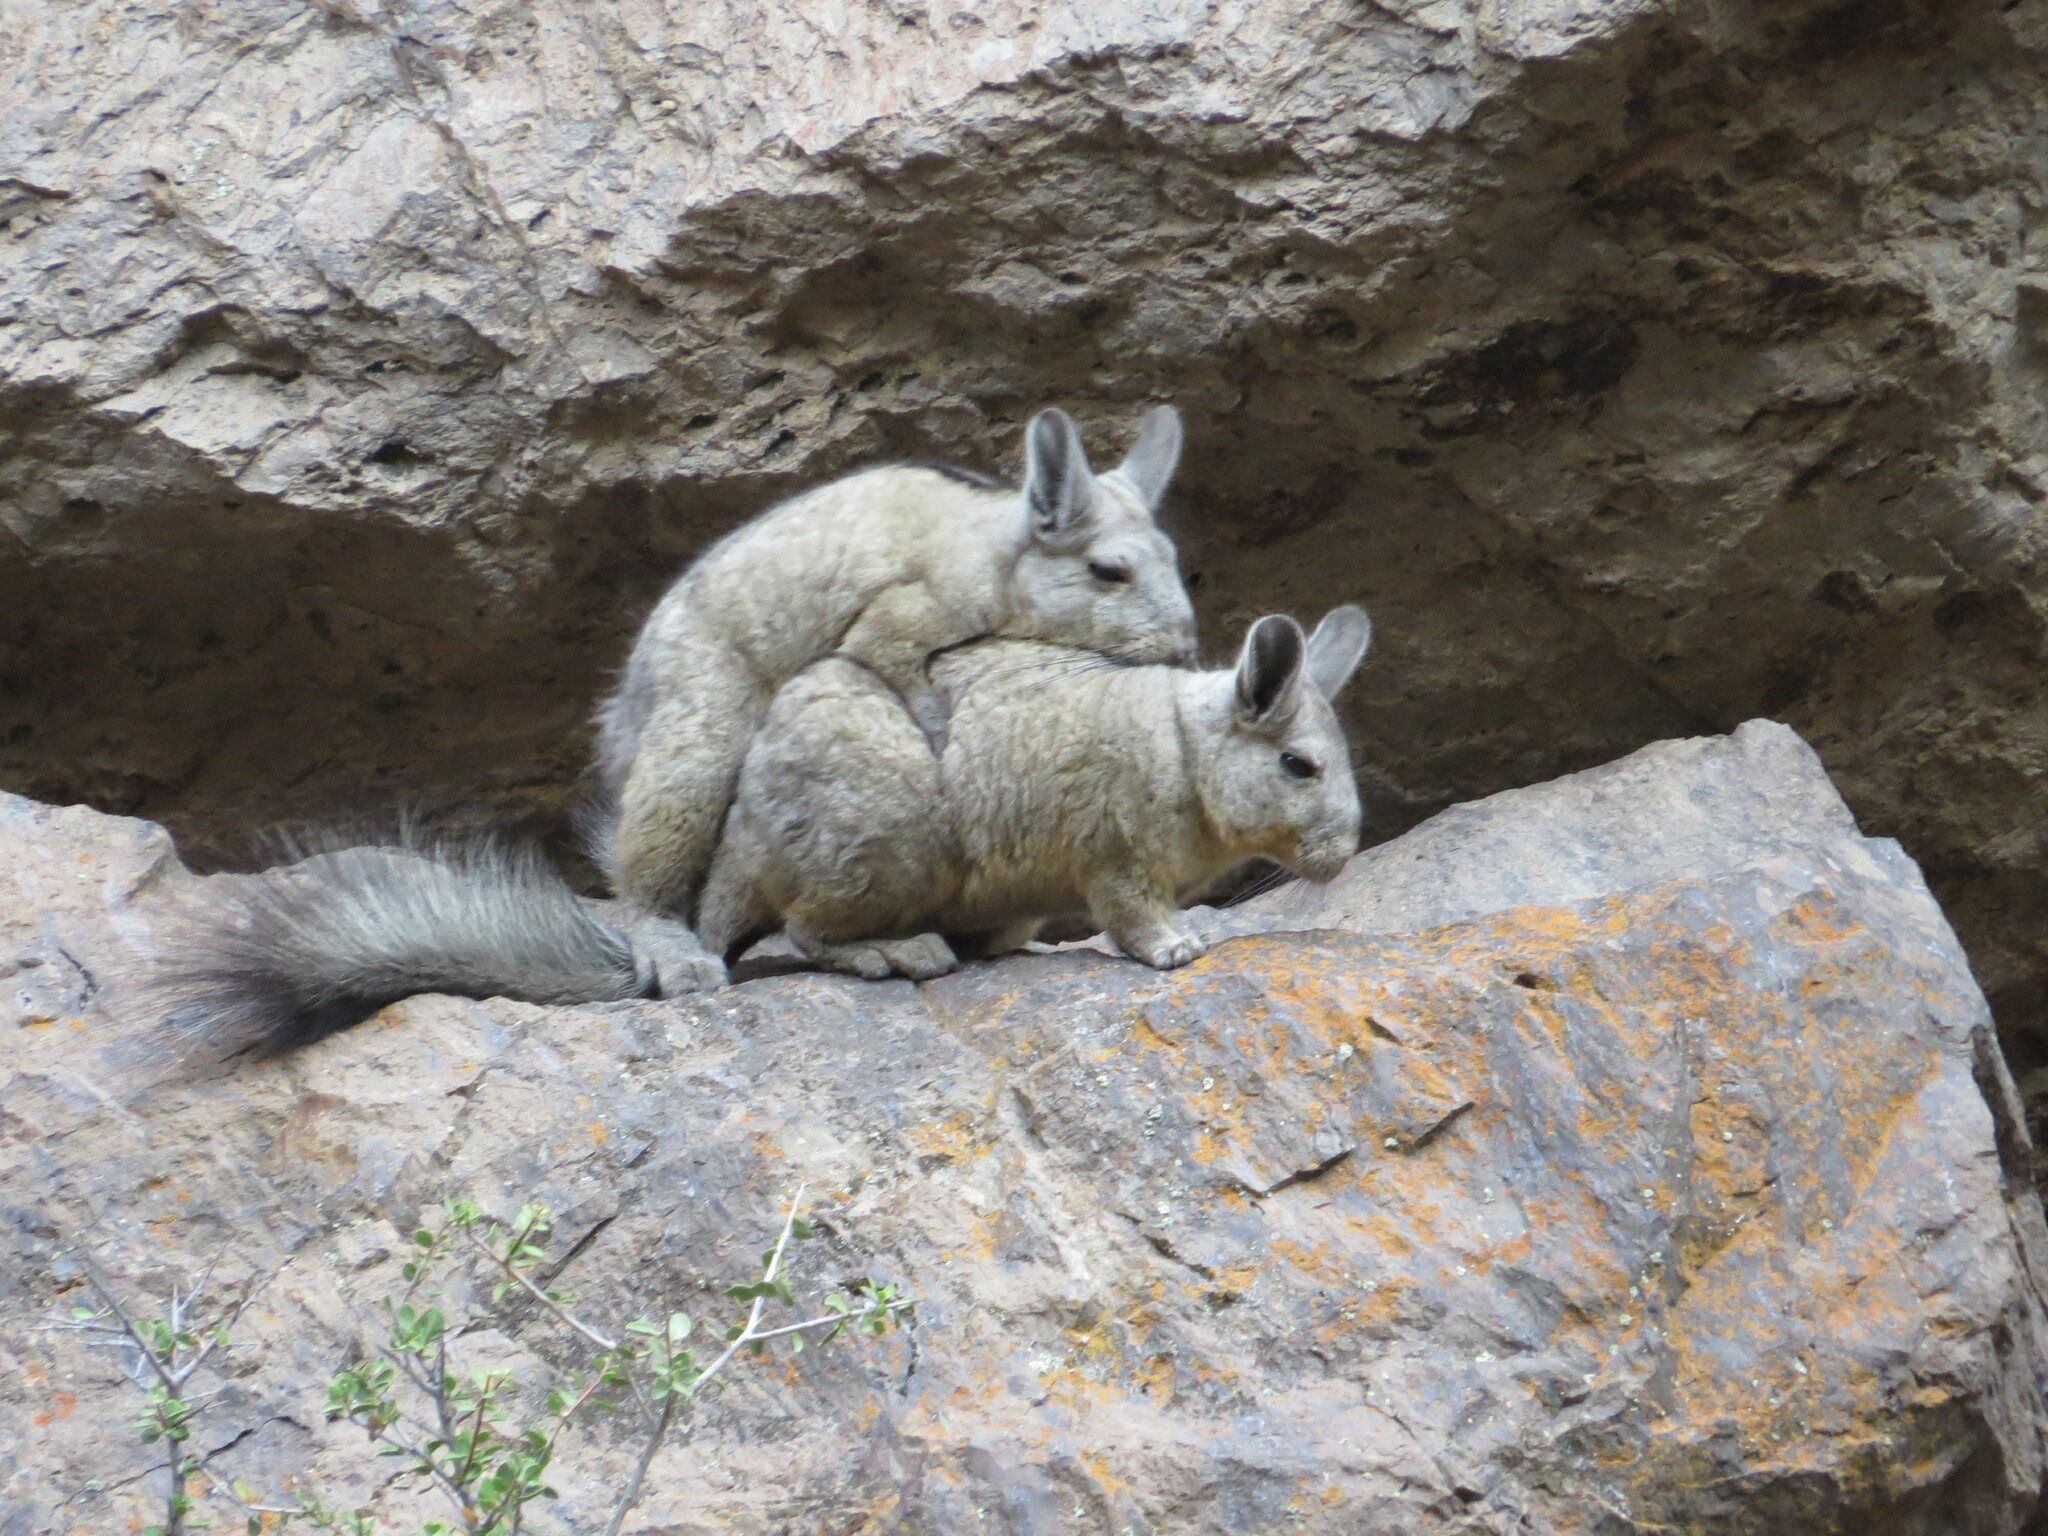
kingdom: Animalia
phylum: Chordata
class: Mammalia
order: Rodentia
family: Chinchillidae
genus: Lagidium
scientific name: Lagidium viscacia
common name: Southern viscacha
